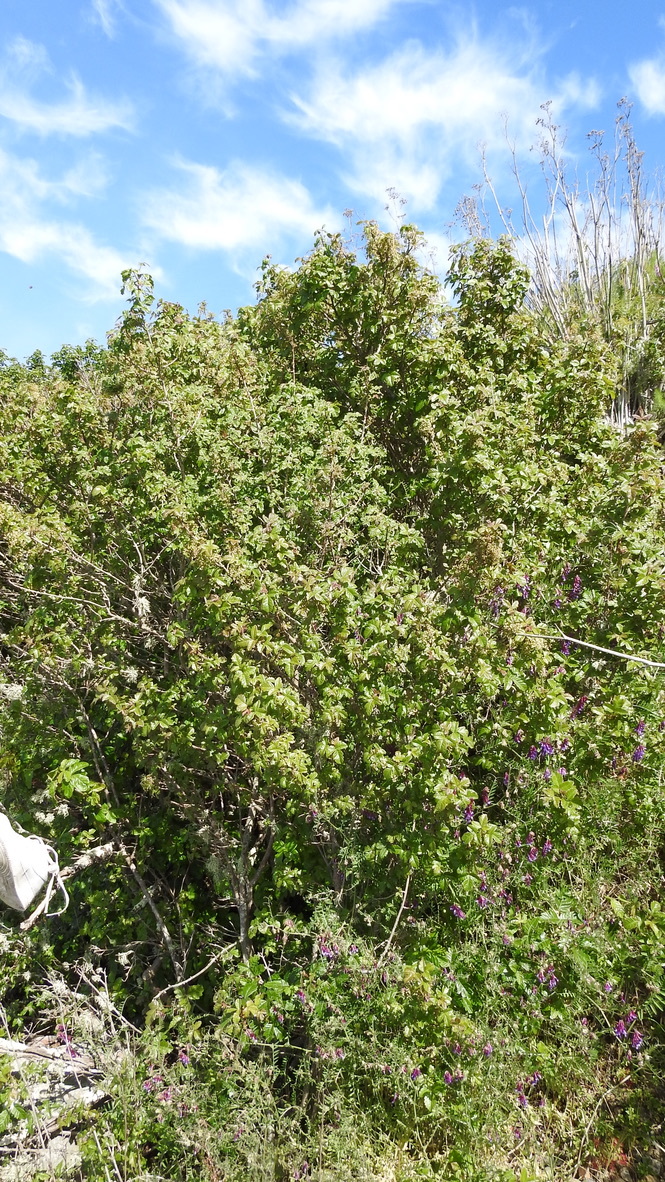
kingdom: Plantae
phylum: Tracheophyta
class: Magnoliopsida
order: Sapindales
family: Anacardiaceae
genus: Toxicodendron
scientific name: Toxicodendron diversilobum
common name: Pacific poison-oak
